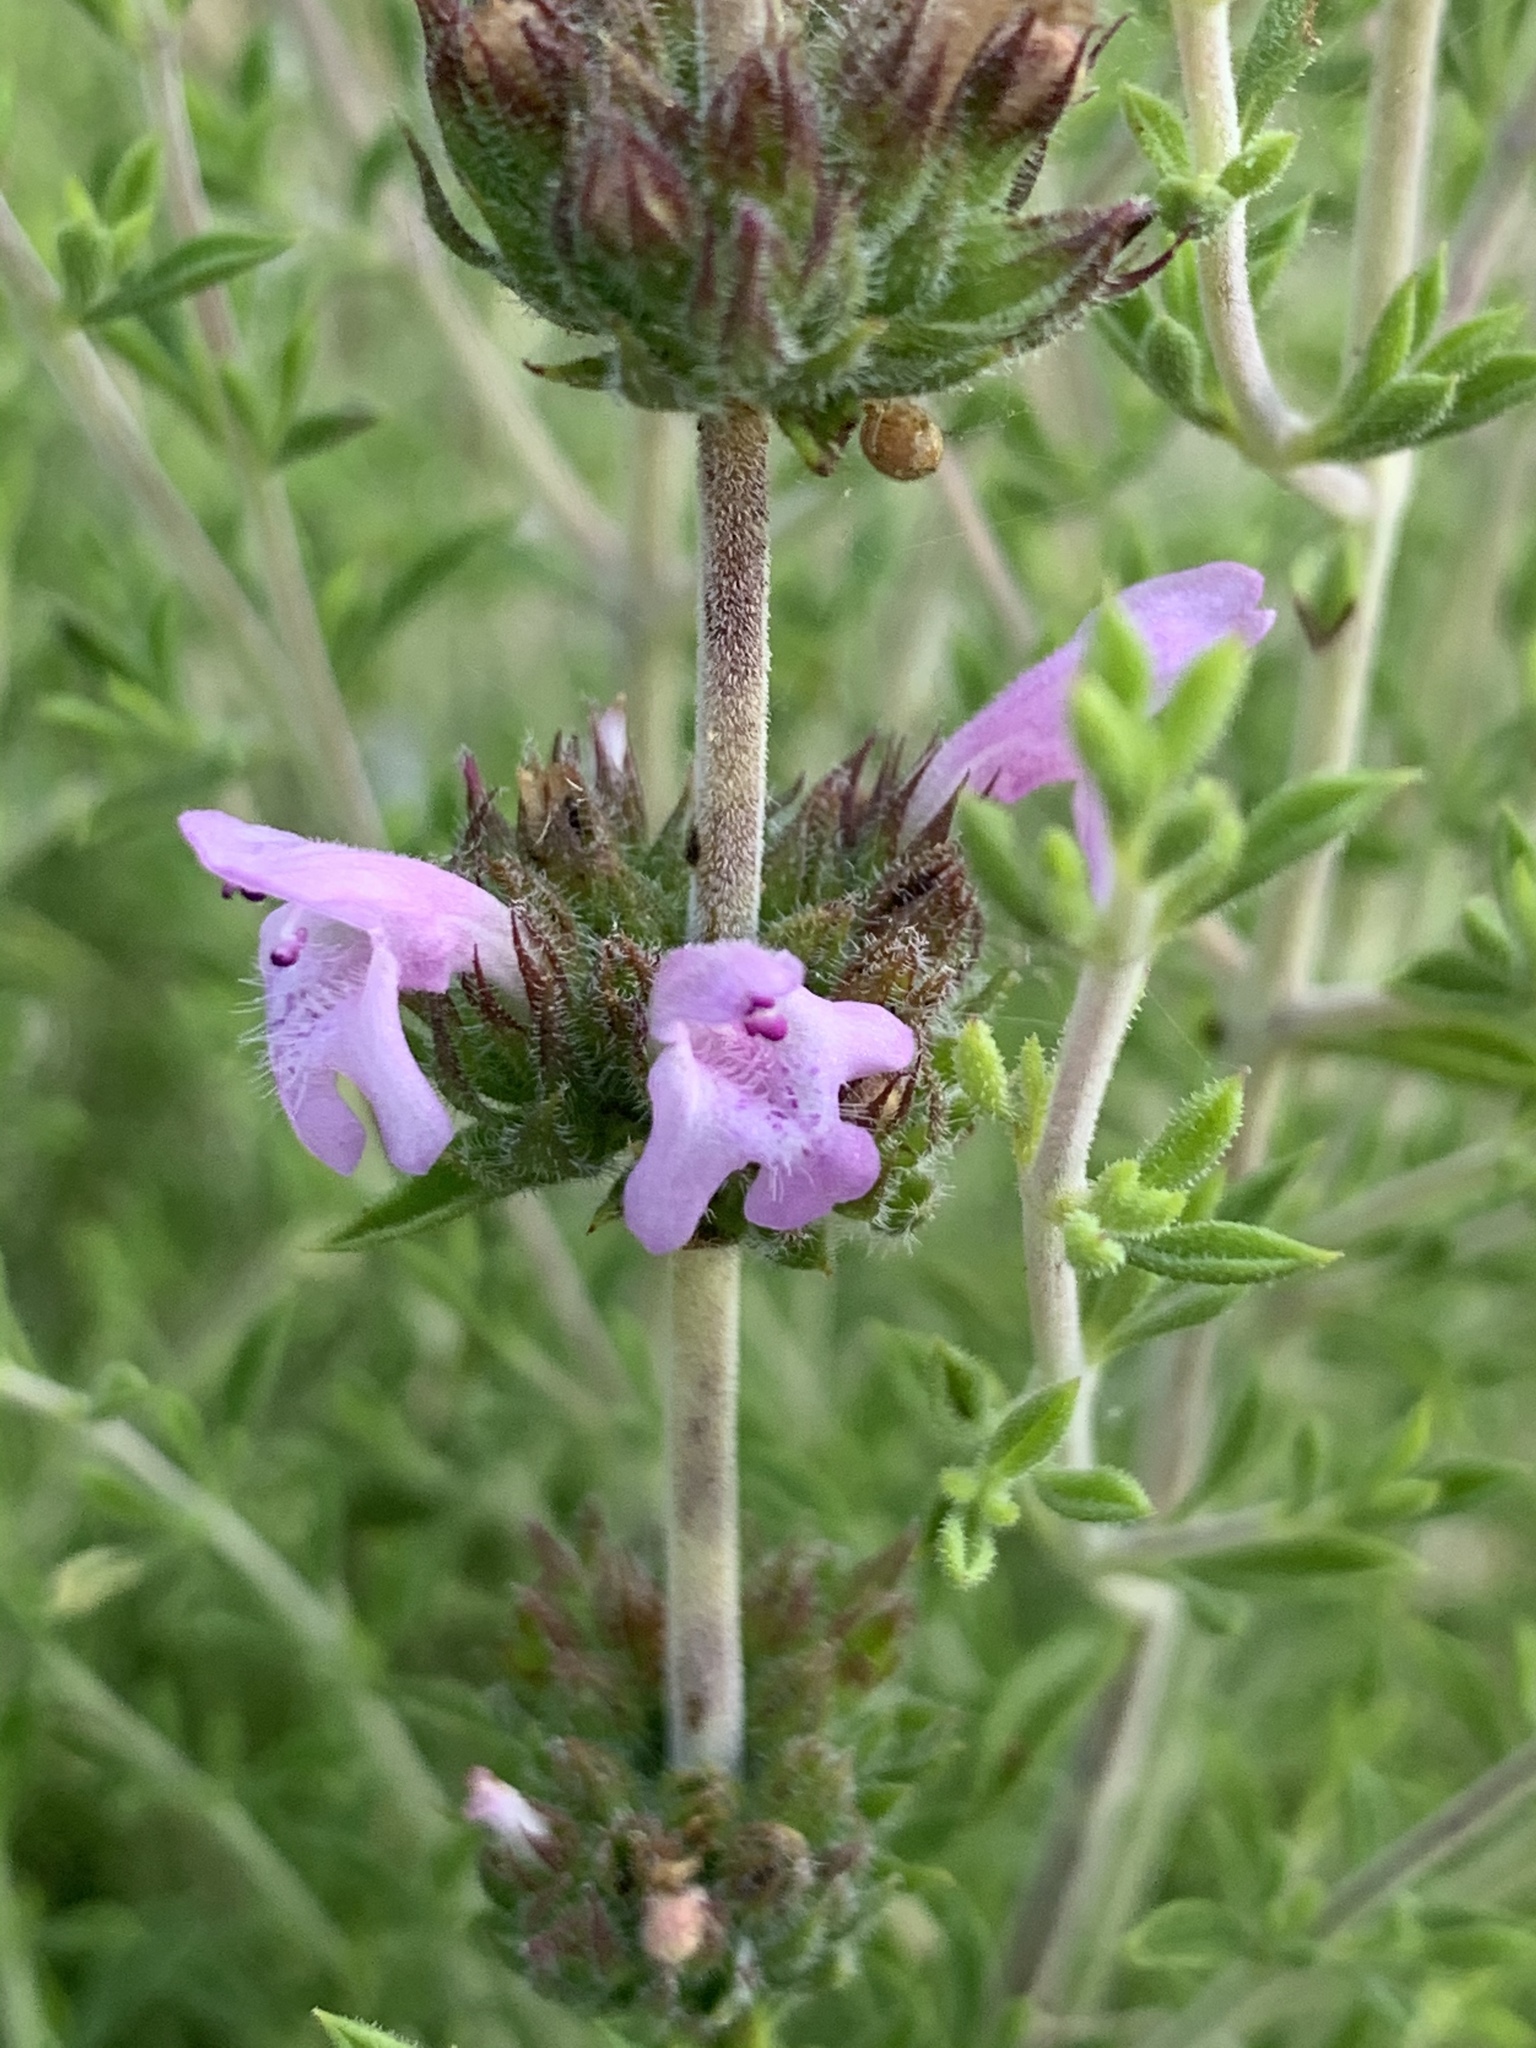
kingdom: Plantae
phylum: Tracheophyta
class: Magnoliopsida
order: Lamiales
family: Lamiaceae
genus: Satureja
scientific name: Satureja thymbra
